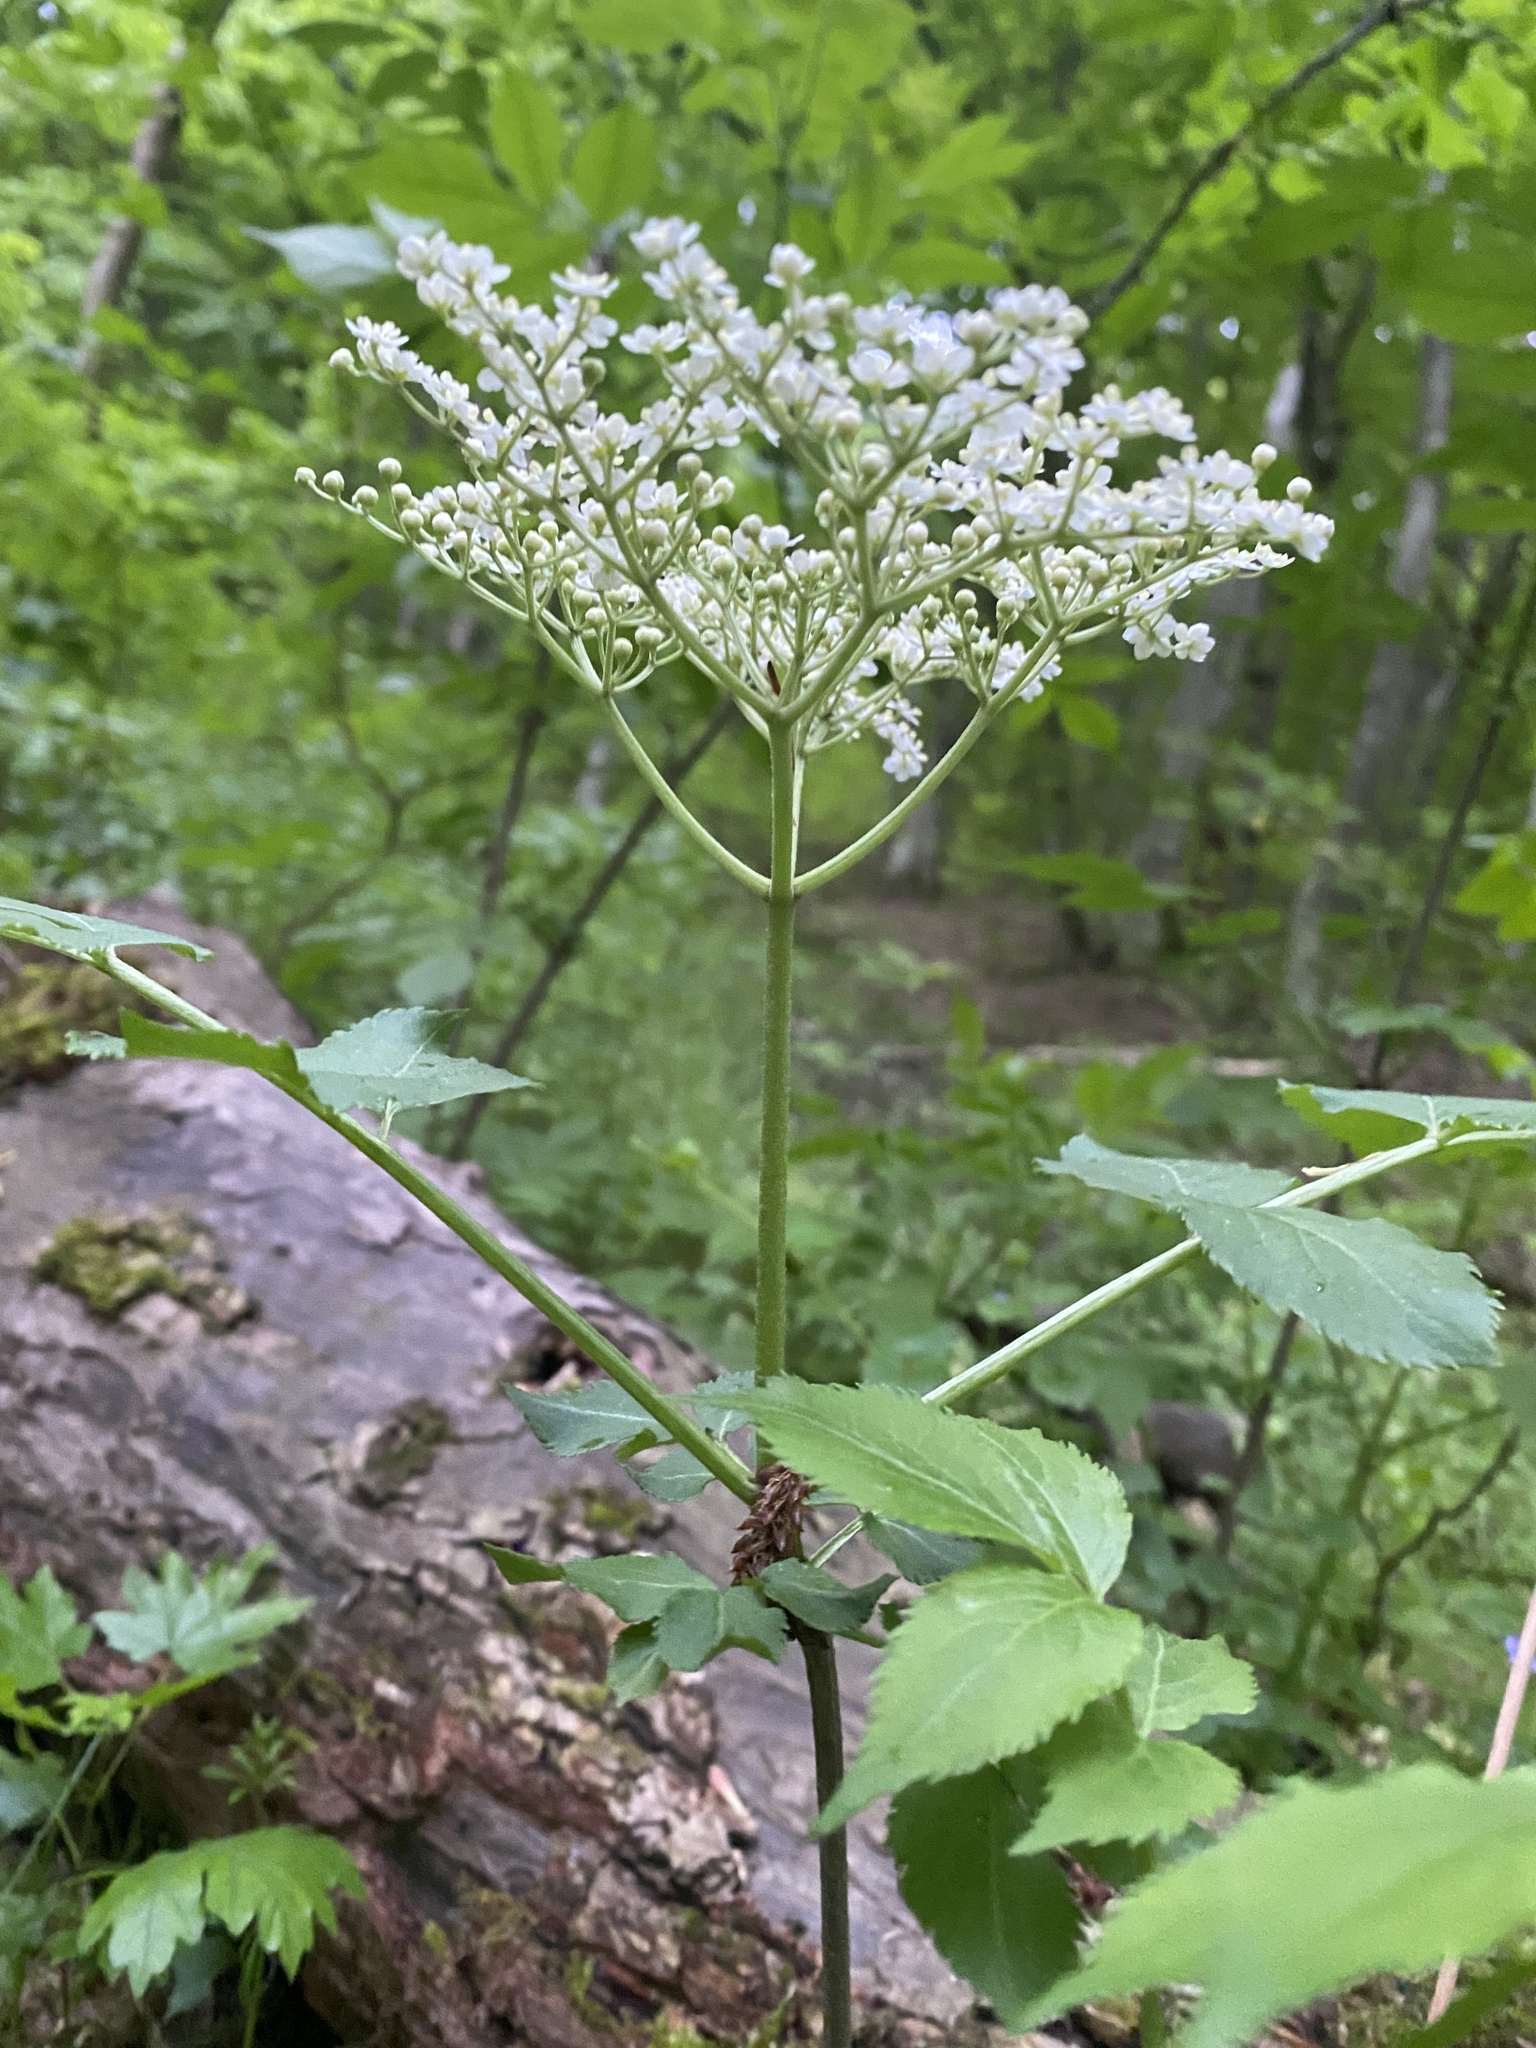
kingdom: Plantae
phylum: Tracheophyta
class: Magnoliopsida
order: Dipsacales
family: Viburnaceae
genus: Sambucus
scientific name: Sambucus nigra
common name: Elder
